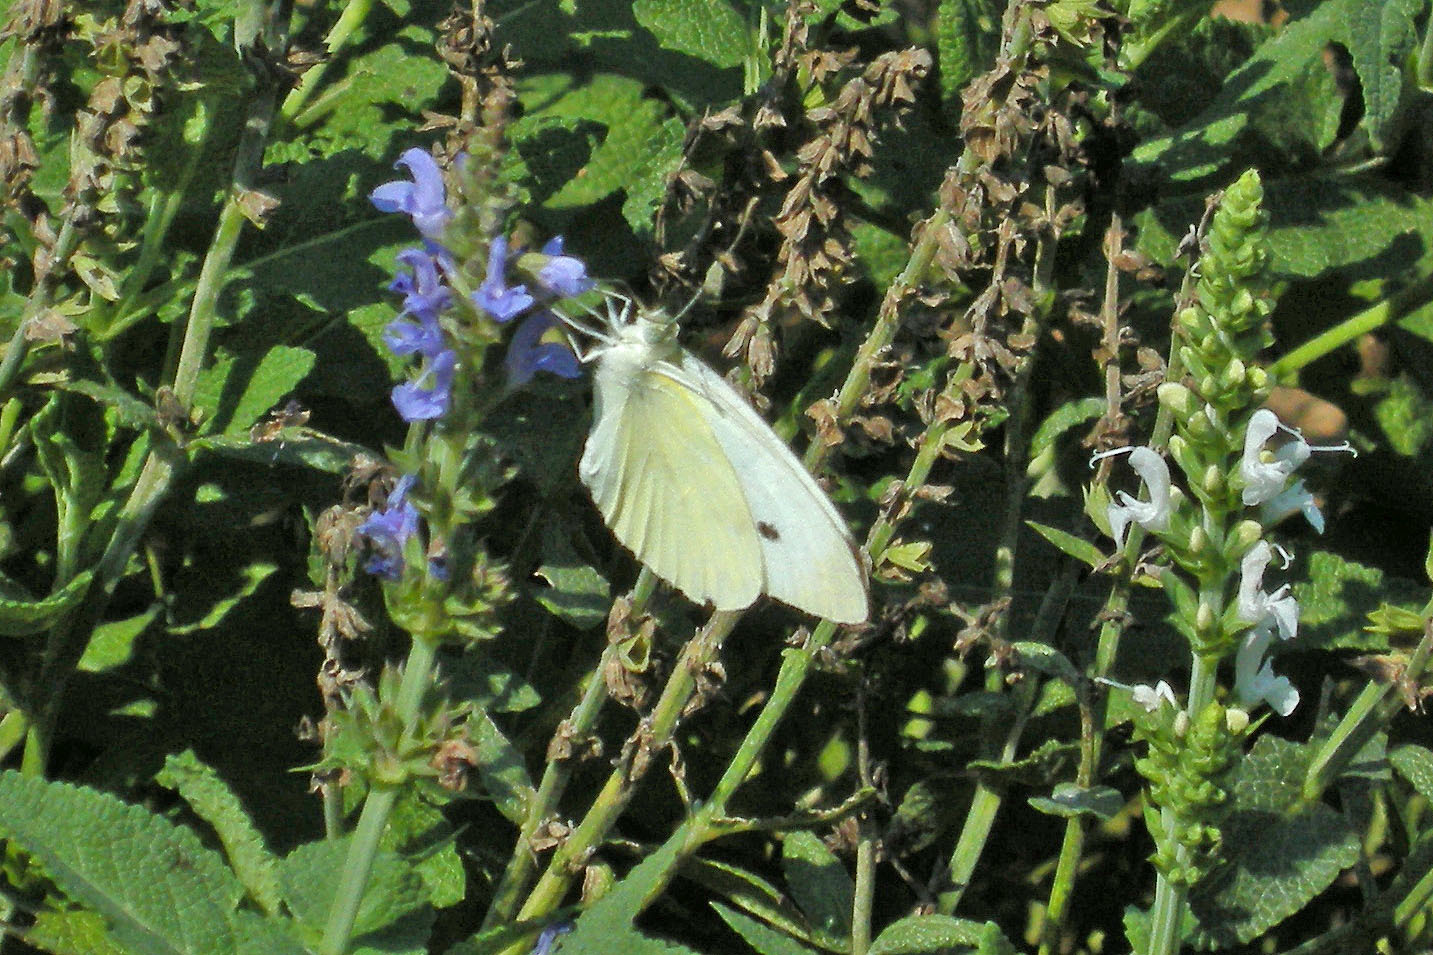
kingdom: Animalia
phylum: Arthropoda
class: Insecta
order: Lepidoptera
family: Pieridae
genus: Pieris
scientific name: Pieris rapae
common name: Small white
